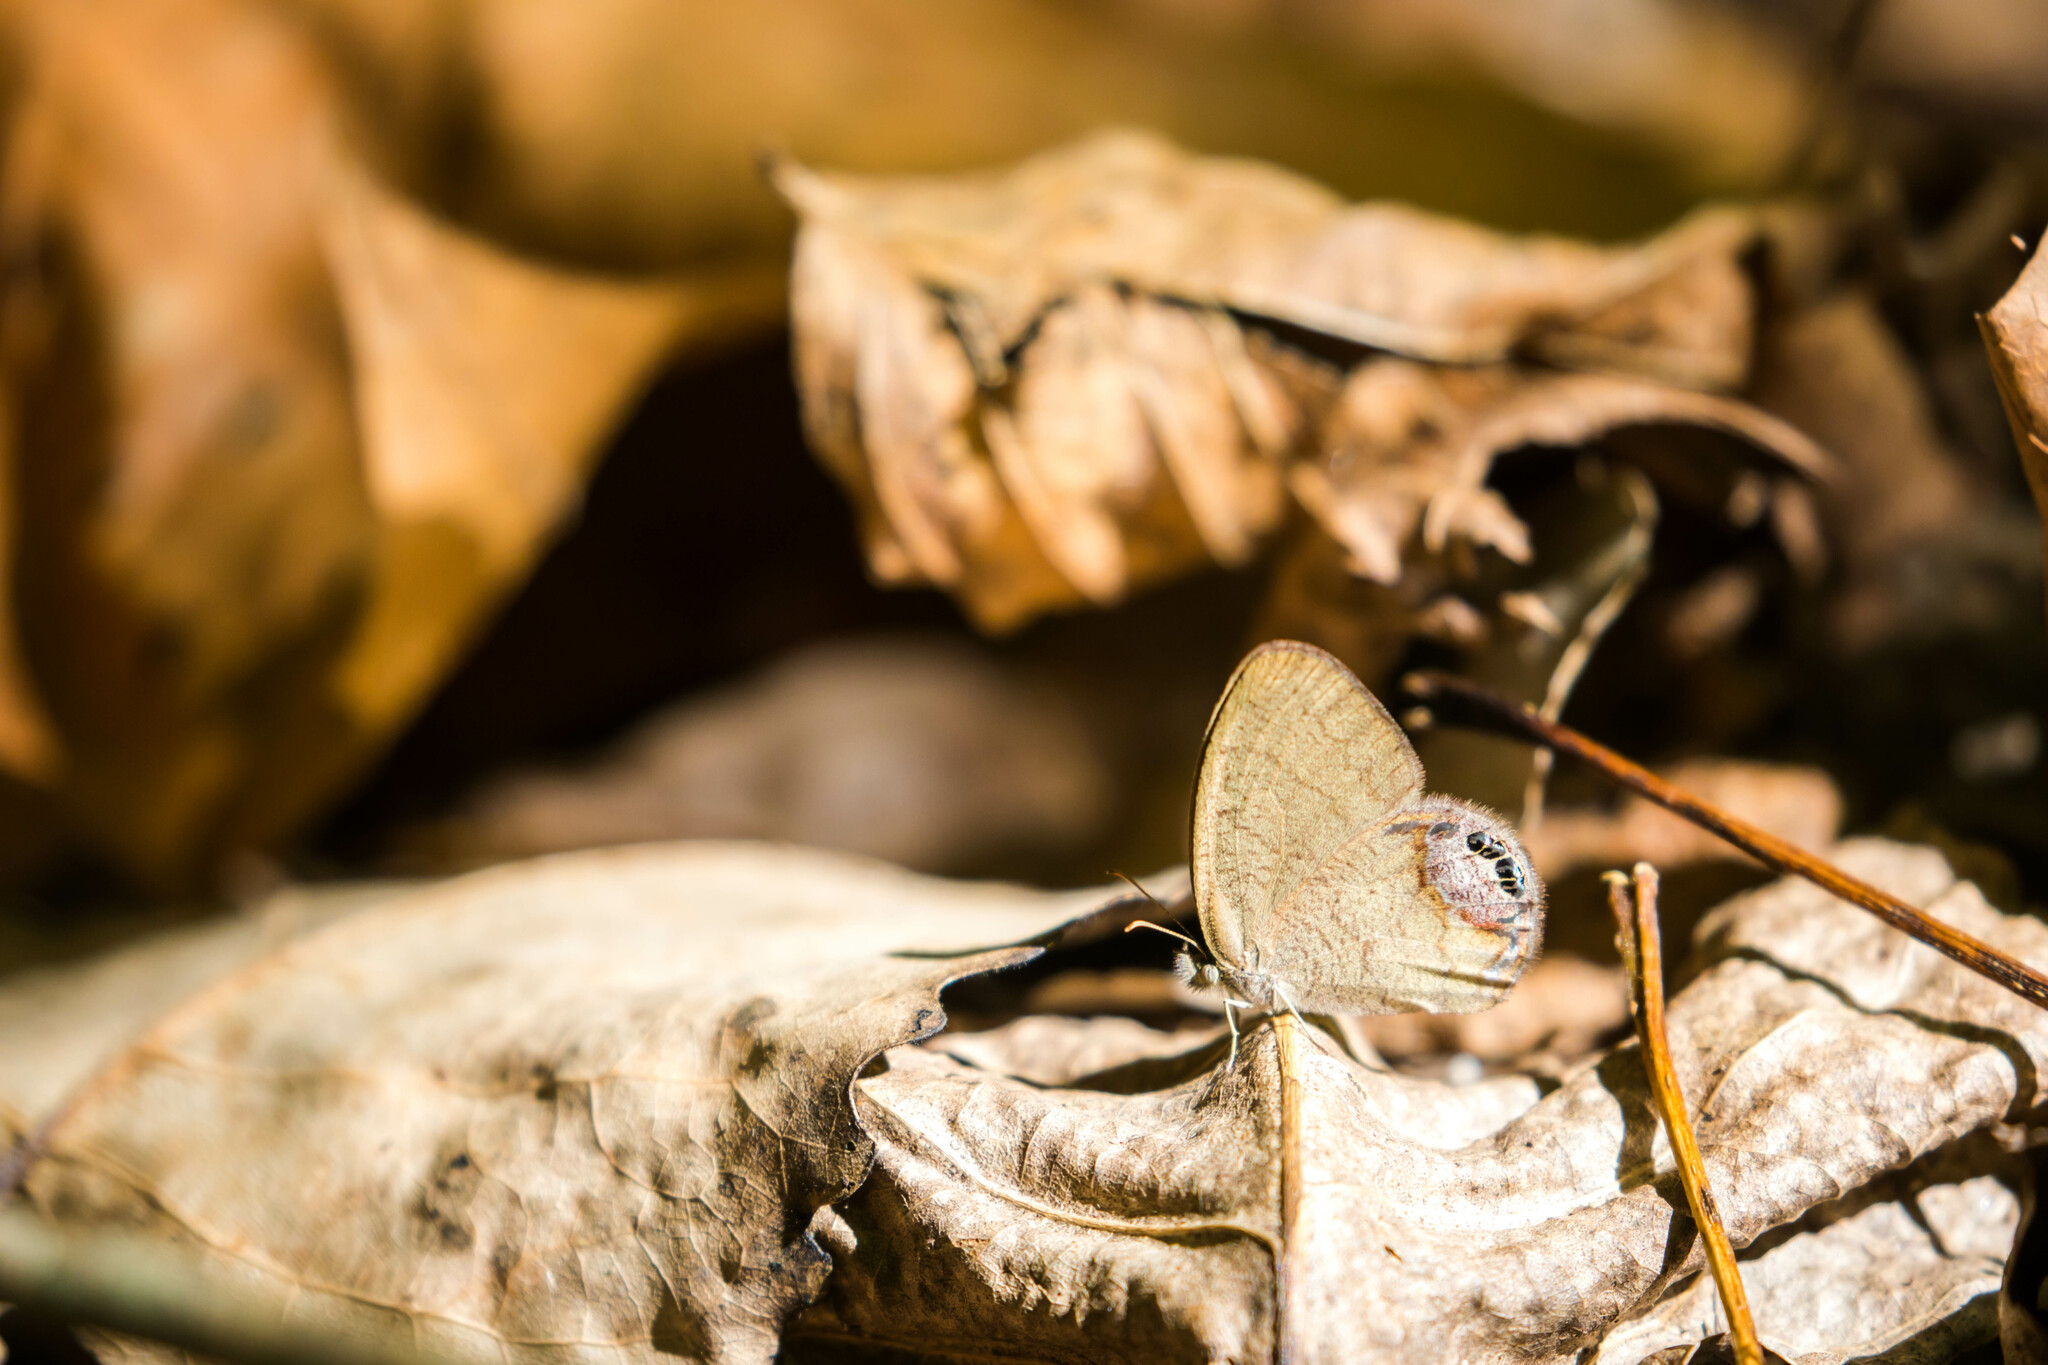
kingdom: Animalia
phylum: Arthropoda
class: Insecta
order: Lepidoptera
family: Nymphalidae
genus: Euptychia
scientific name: Euptychia cornelius
